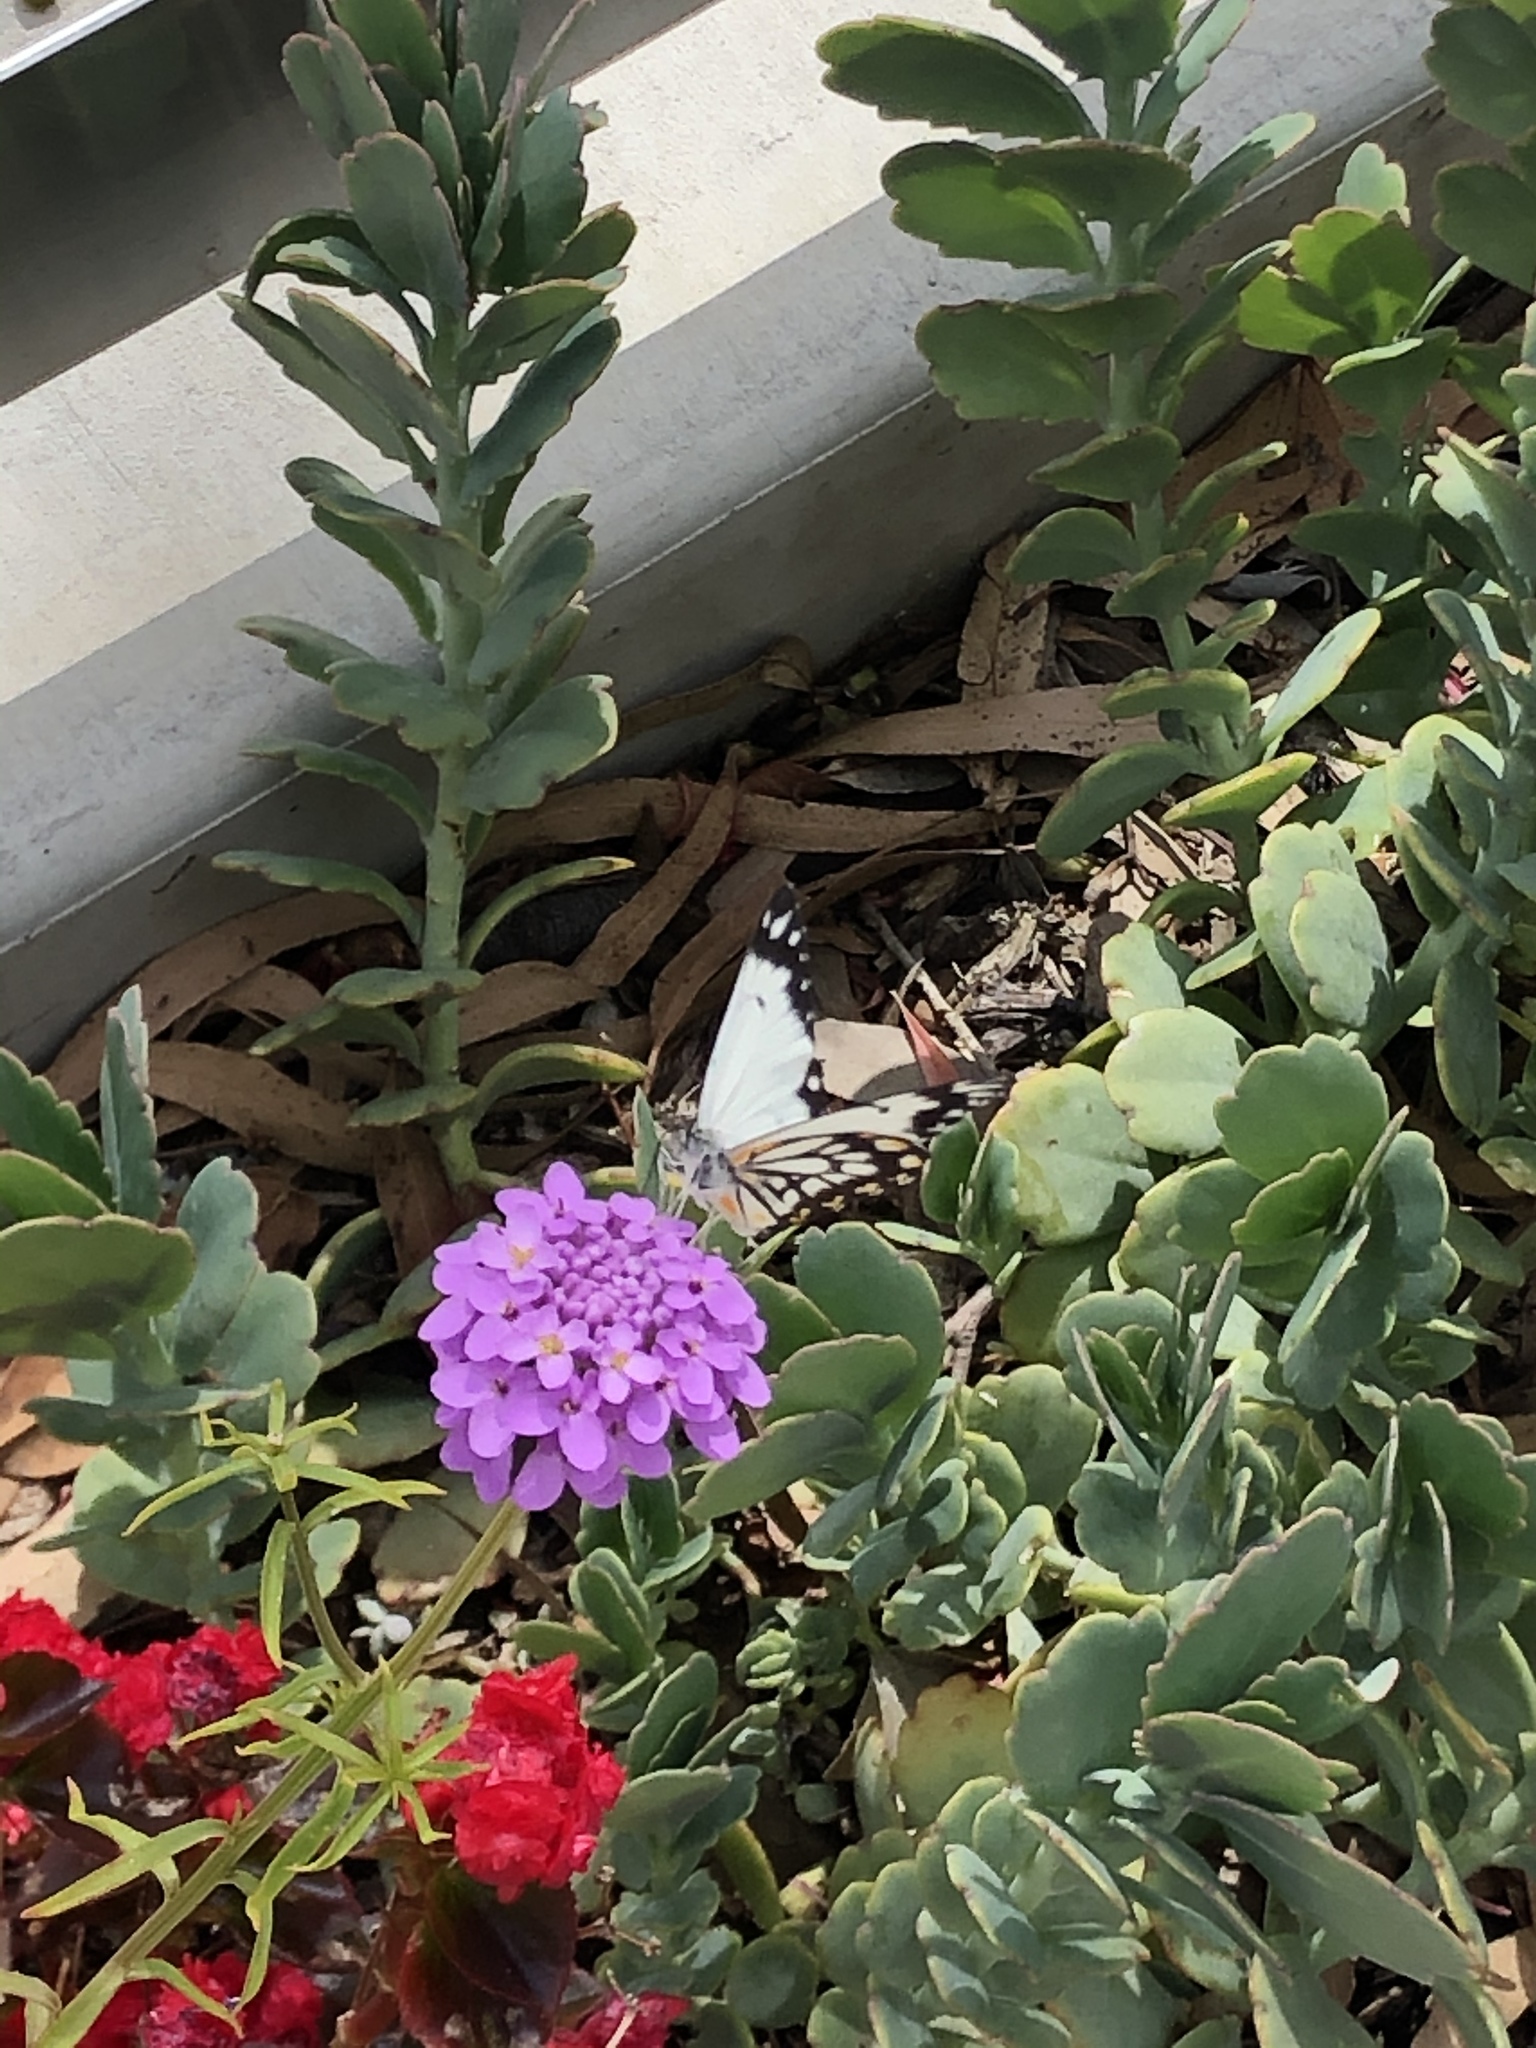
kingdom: Animalia
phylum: Arthropoda
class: Insecta
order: Lepidoptera
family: Pieridae
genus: Belenois
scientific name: Belenois java
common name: Caper white
